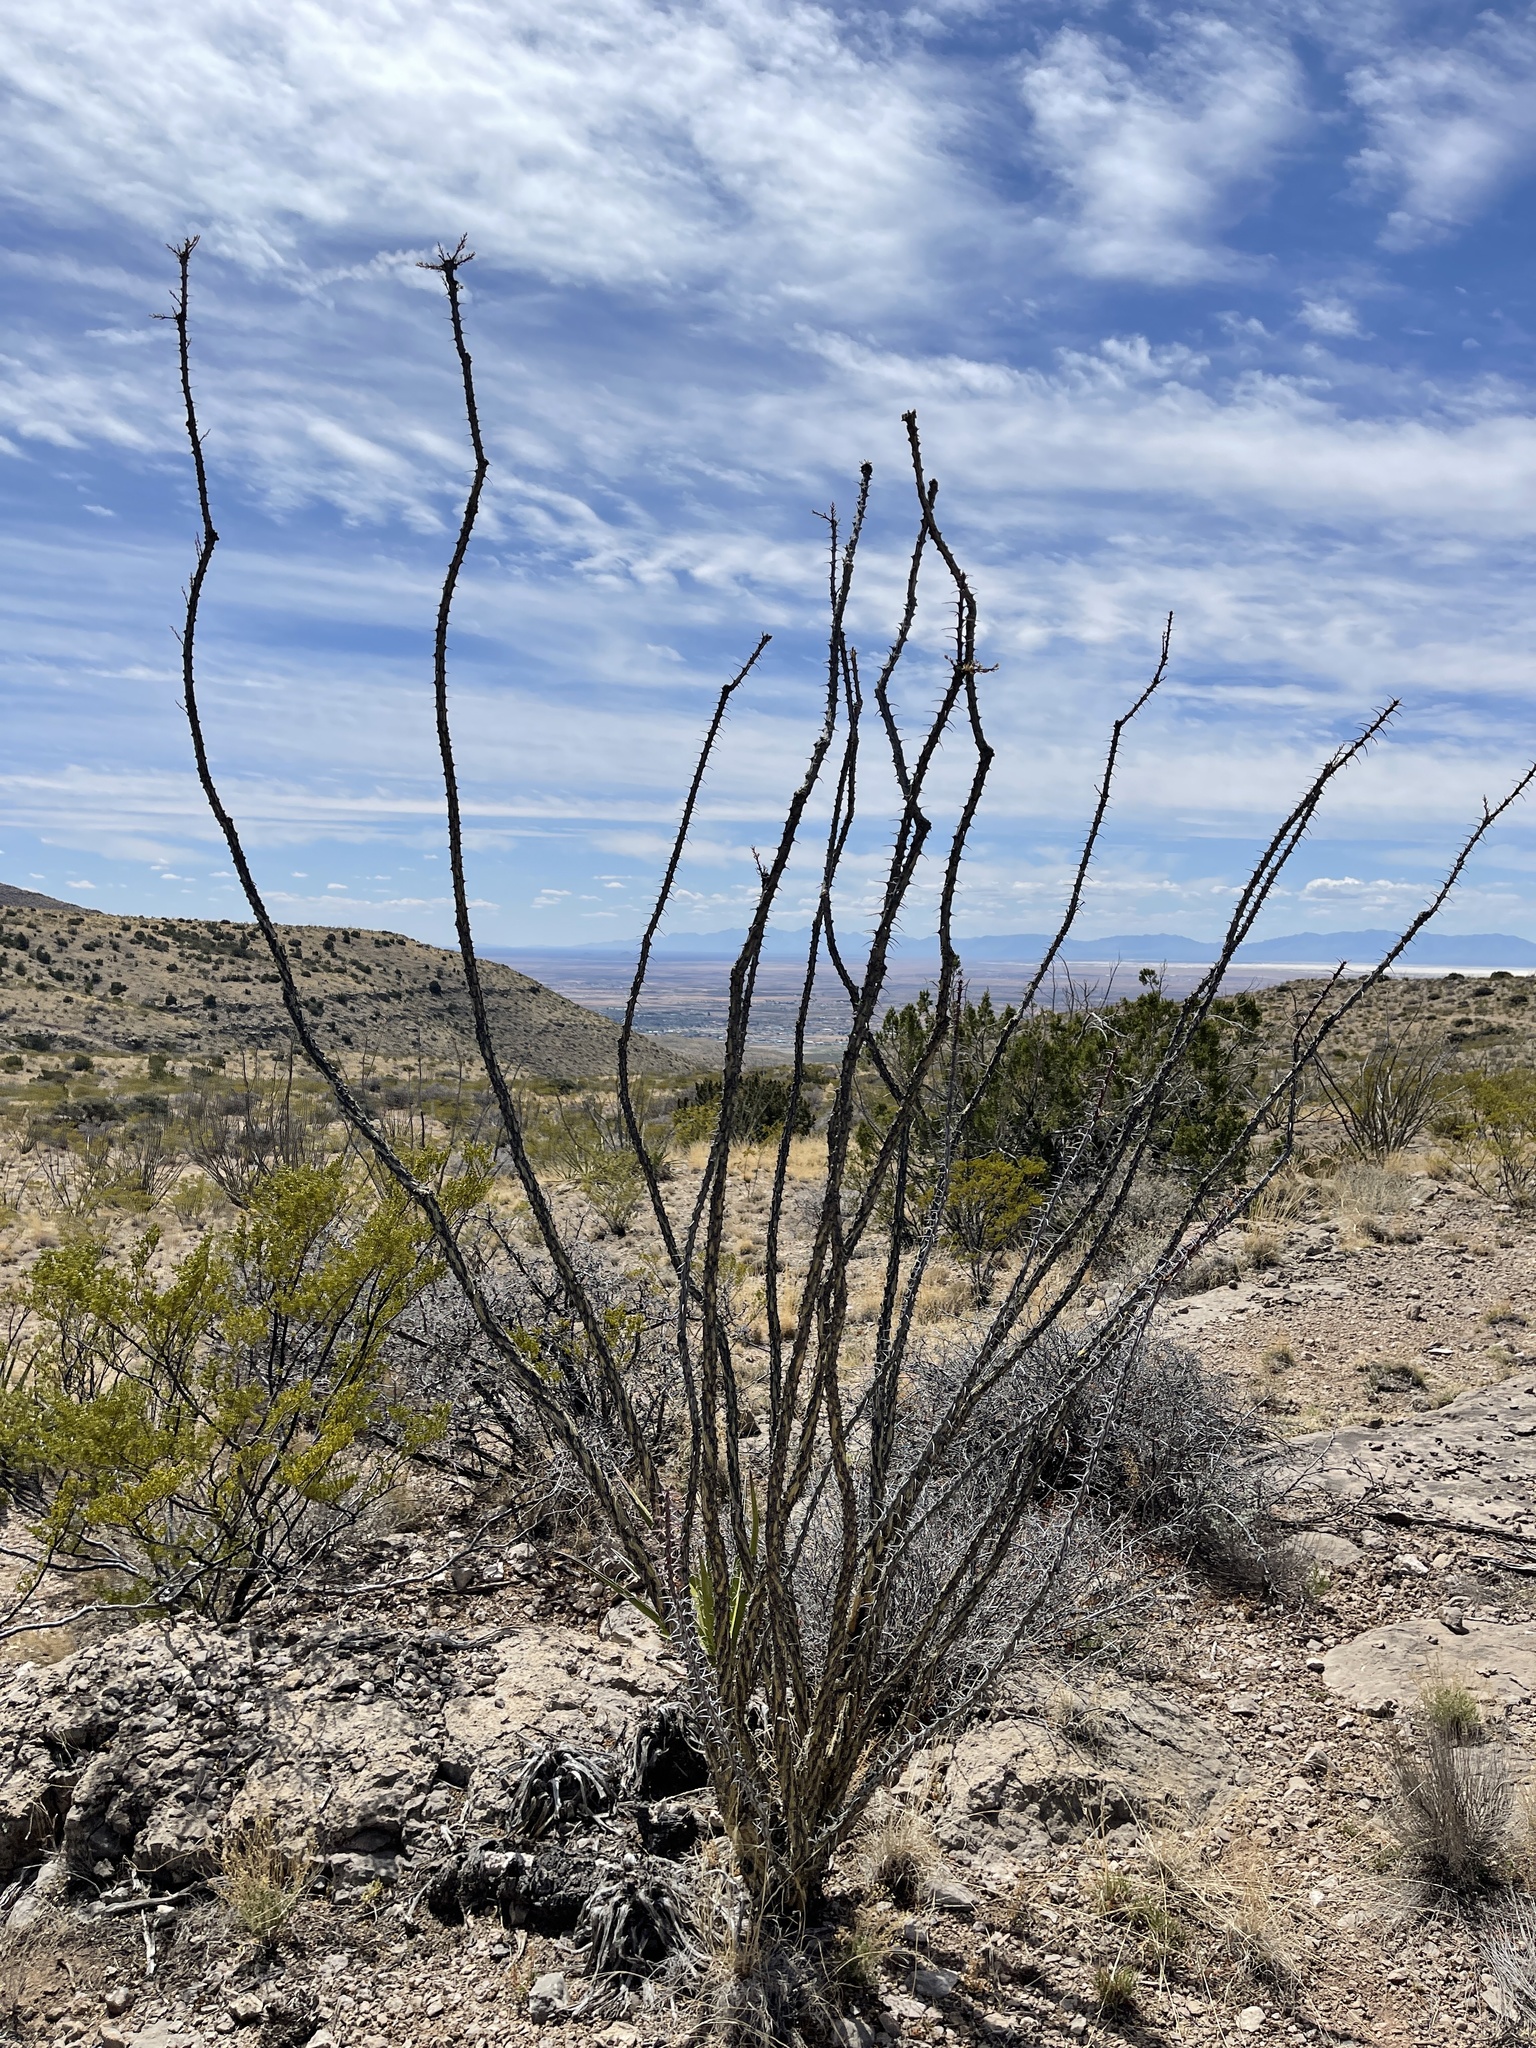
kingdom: Plantae
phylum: Tracheophyta
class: Magnoliopsida
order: Ericales
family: Fouquieriaceae
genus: Fouquieria
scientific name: Fouquieria splendens
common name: Vine-cactus
